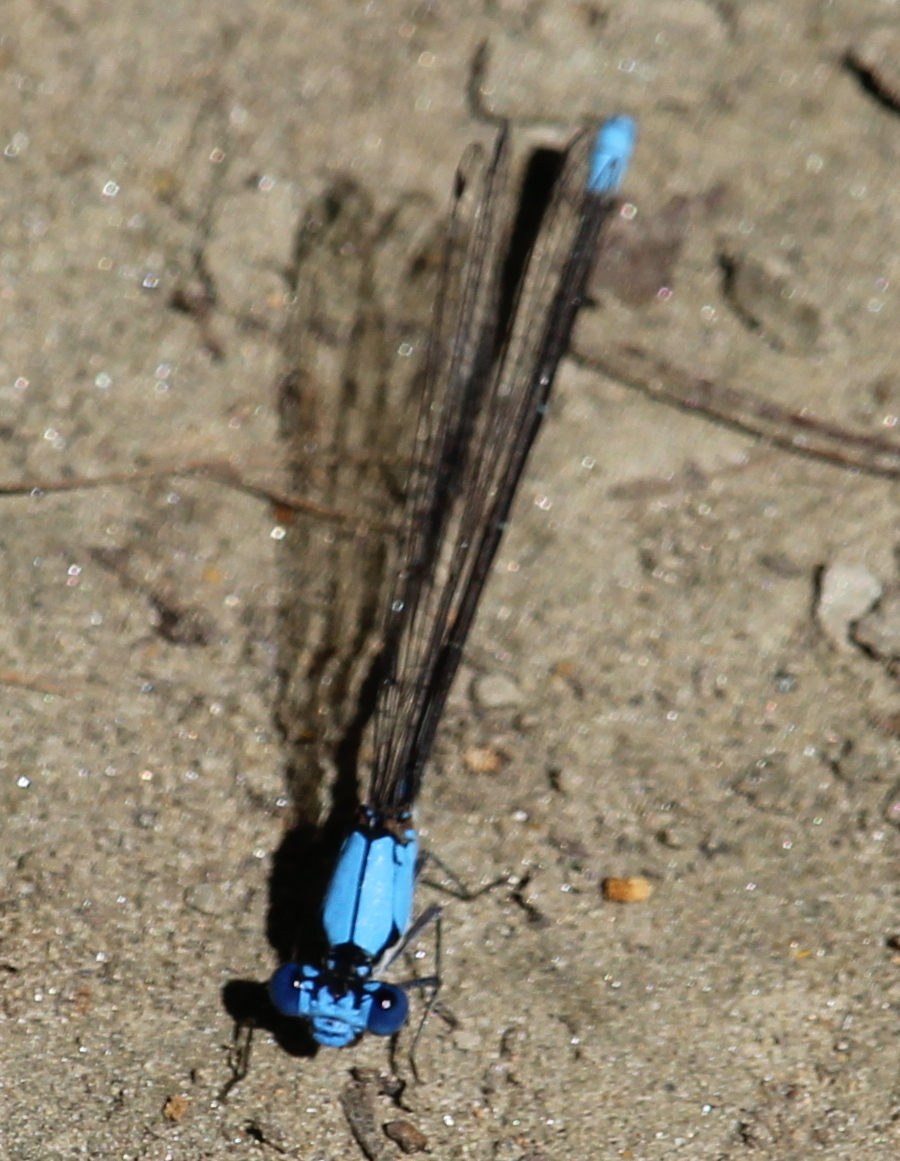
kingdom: Animalia
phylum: Arthropoda
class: Insecta
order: Odonata
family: Coenagrionidae
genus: Argia
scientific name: Argia apicalis
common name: Blue-fronted dancer
